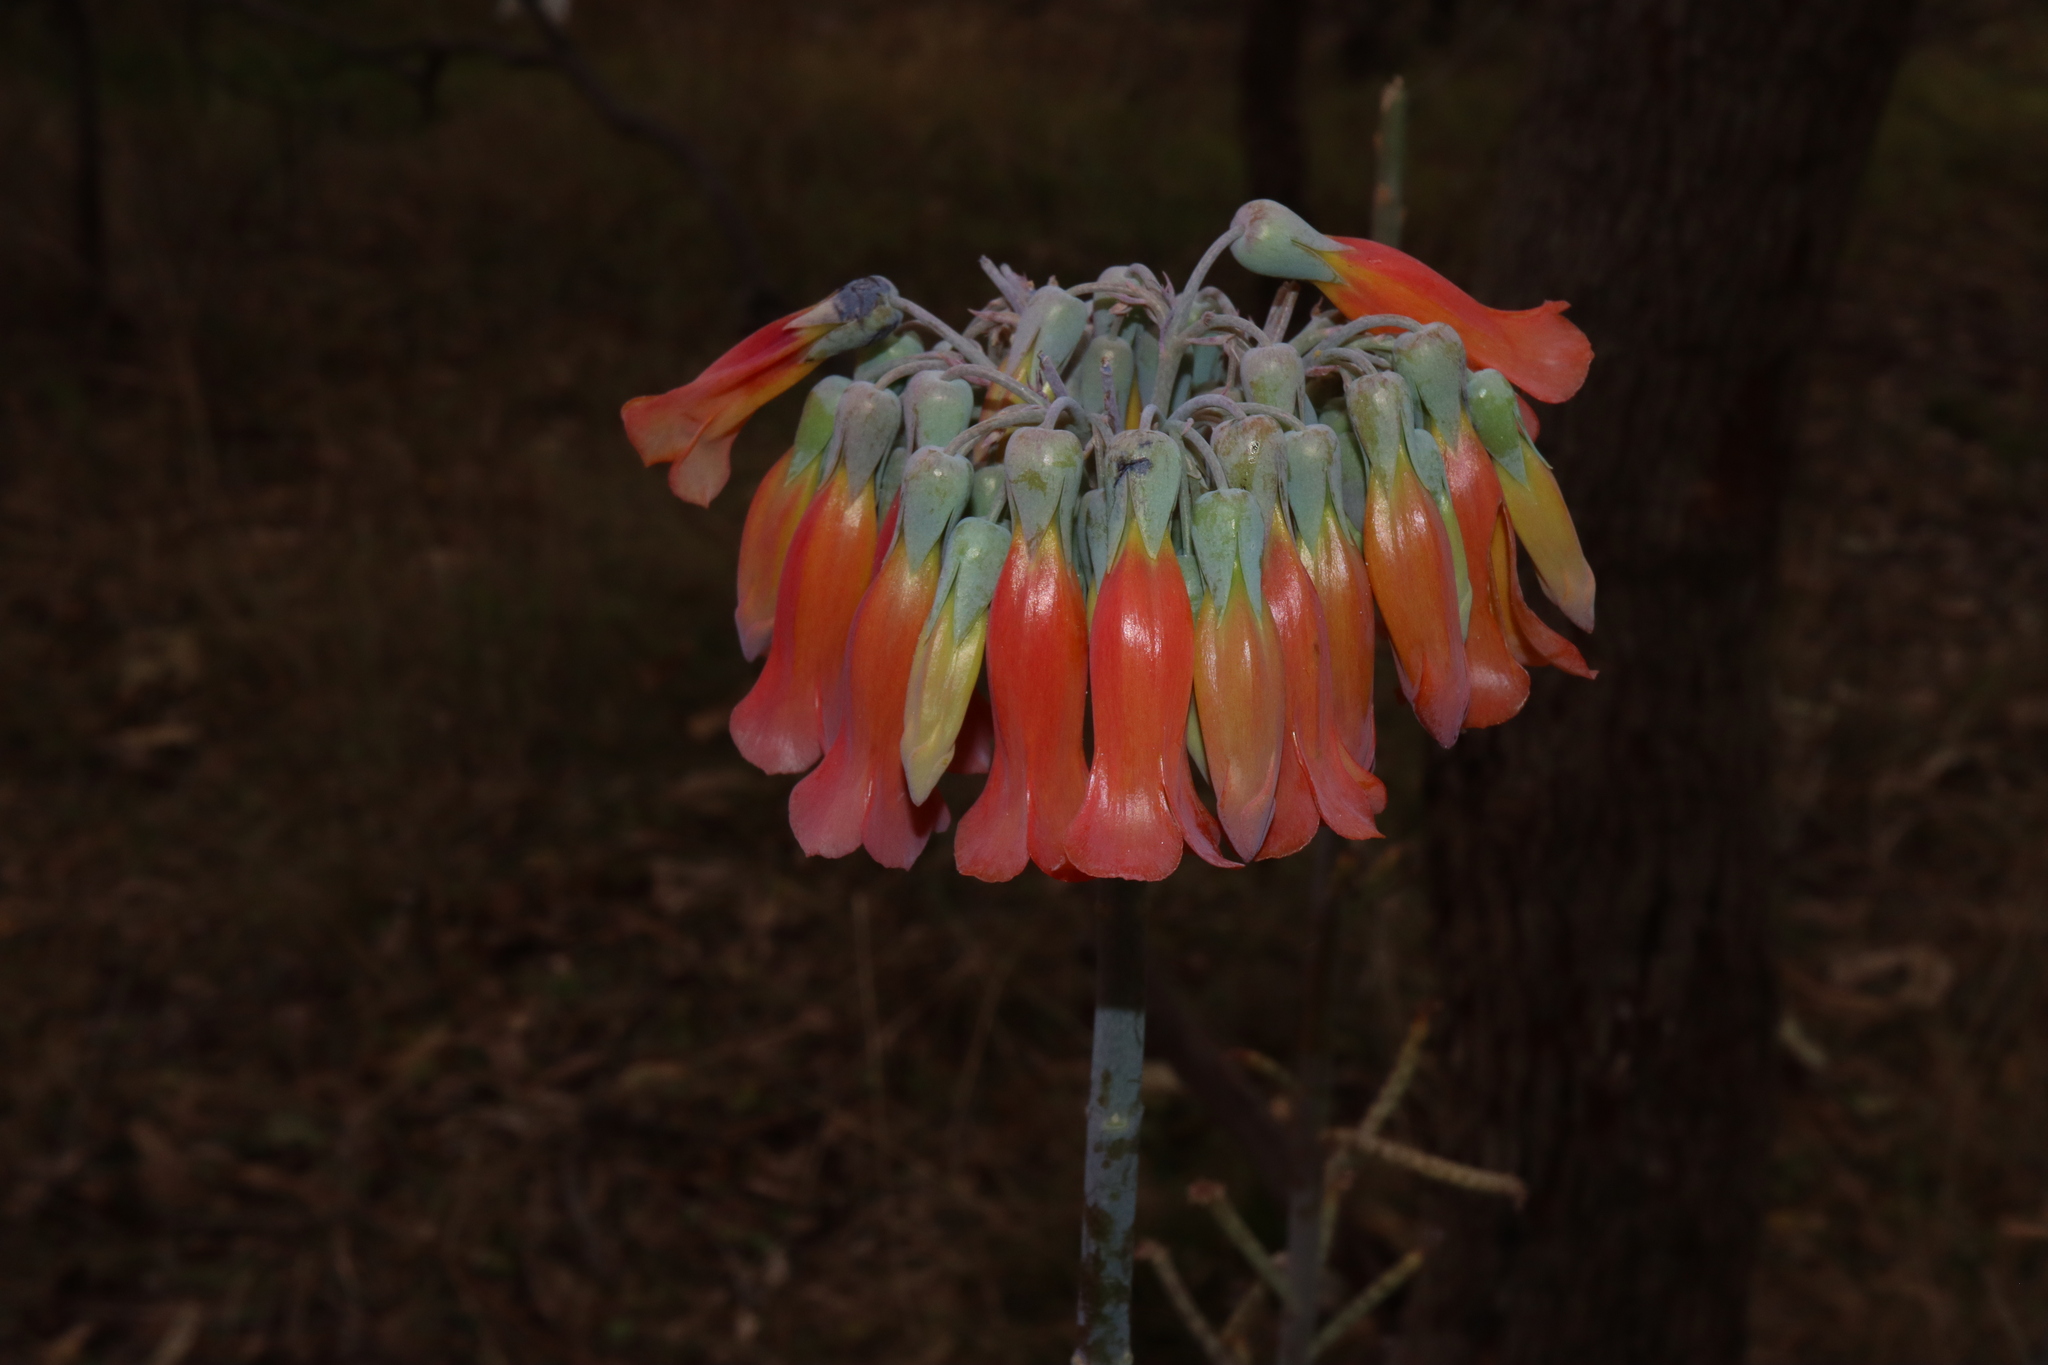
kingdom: Plantae
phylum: Tracheophyta
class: Magnoliopsida
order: Saxifragales
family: Crassulaceae
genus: Kalanchoe
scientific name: Kalanchoe delagoensis
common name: Chandelier plant
